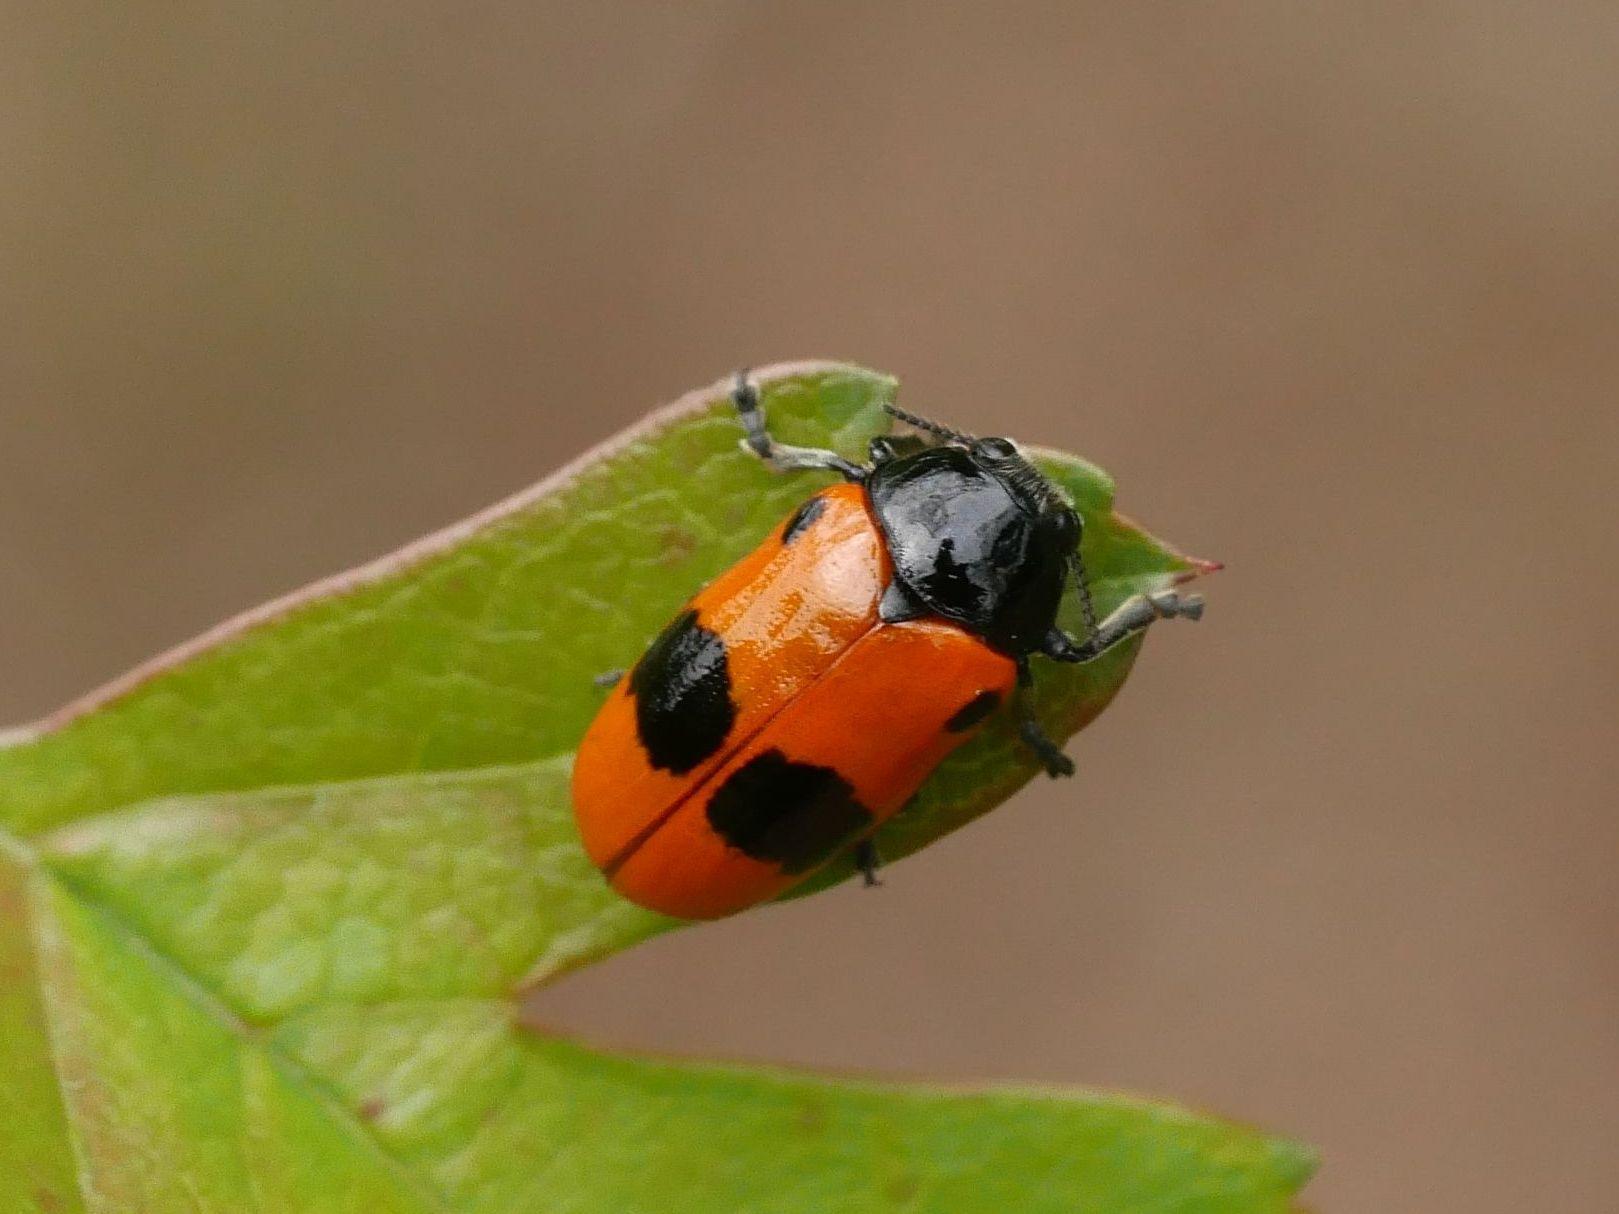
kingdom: Animalia
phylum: Arthropoda
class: Insecta
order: Coleoptera
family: Chrysomelidae
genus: Clytra
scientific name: Clytra laeviuscula
